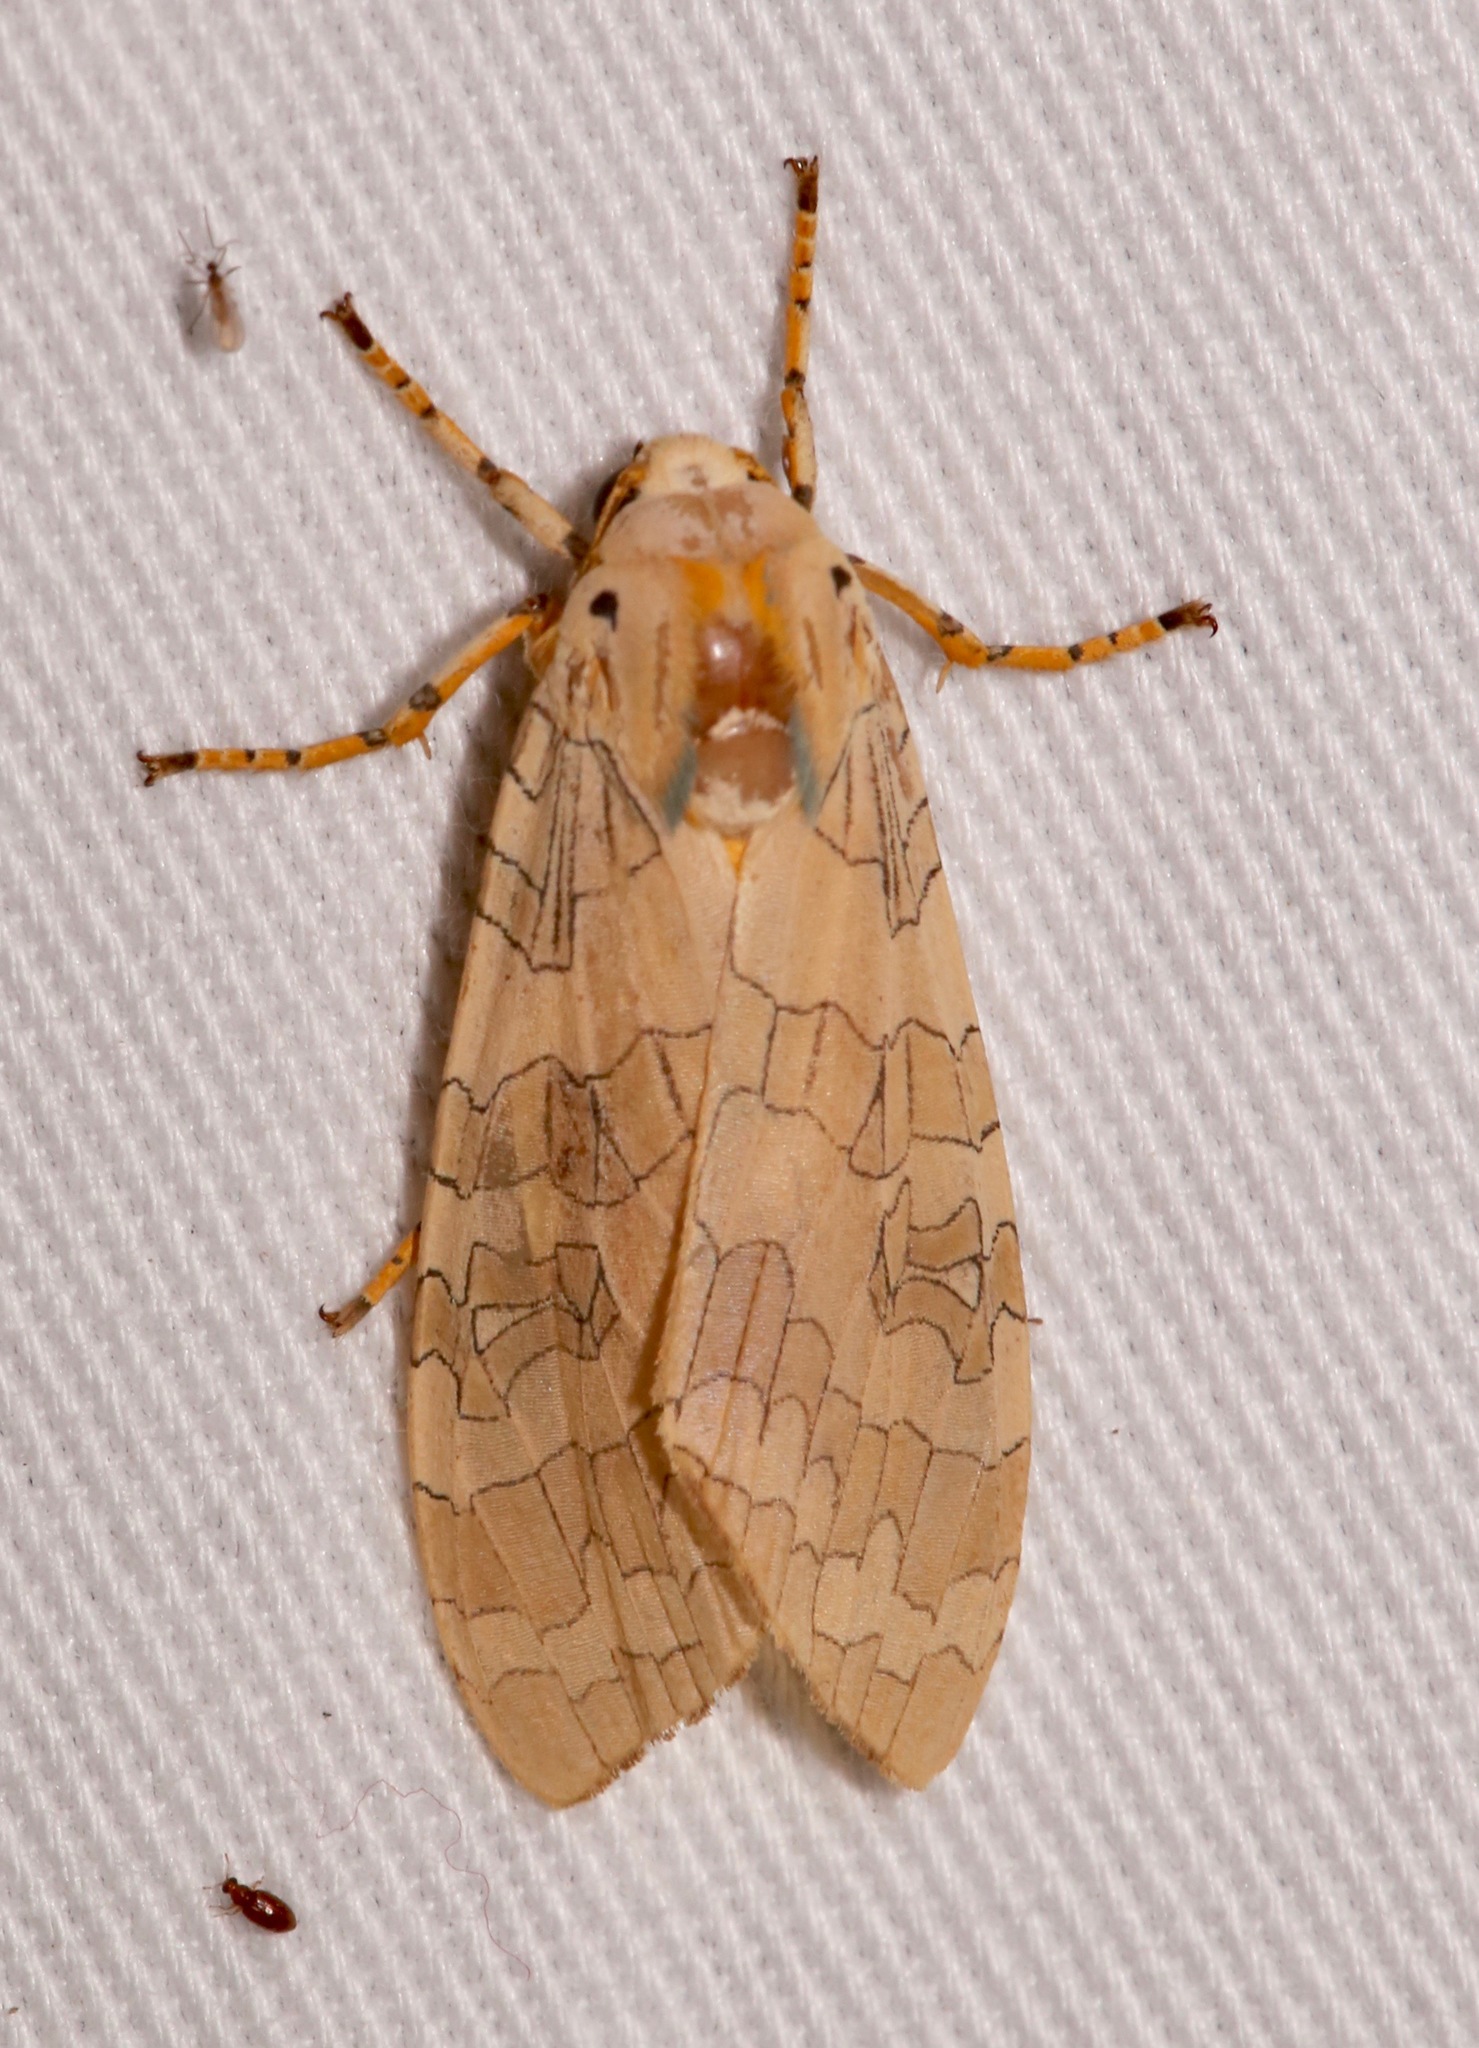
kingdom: Animalia
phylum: Arthropoda
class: Insecta
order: Lepidoptera
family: Erebidae
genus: Halysidota
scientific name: Halysidota
